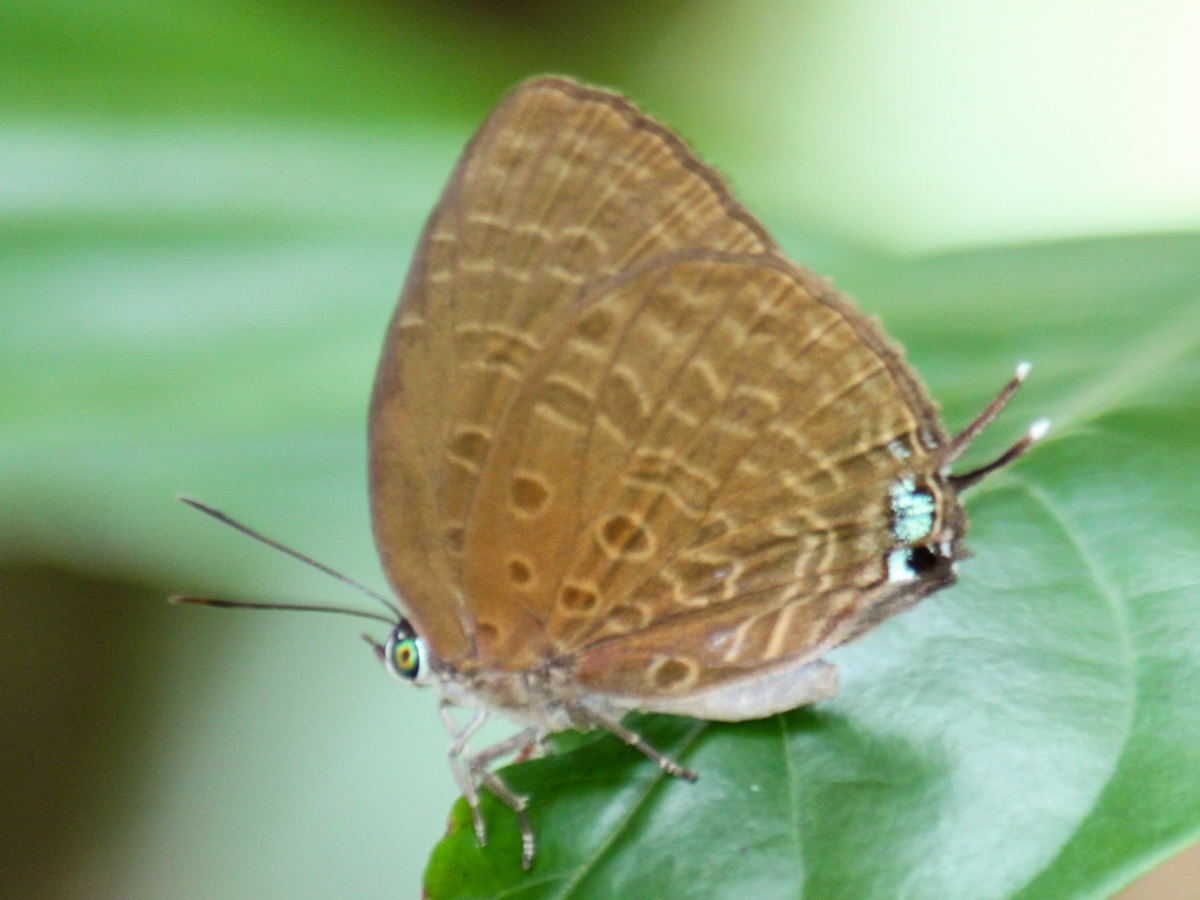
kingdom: Animalia
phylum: Arthropoda
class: Insecta
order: Lepidoptera
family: Lycaenidae
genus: Arhopala
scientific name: Arhopala atosia
